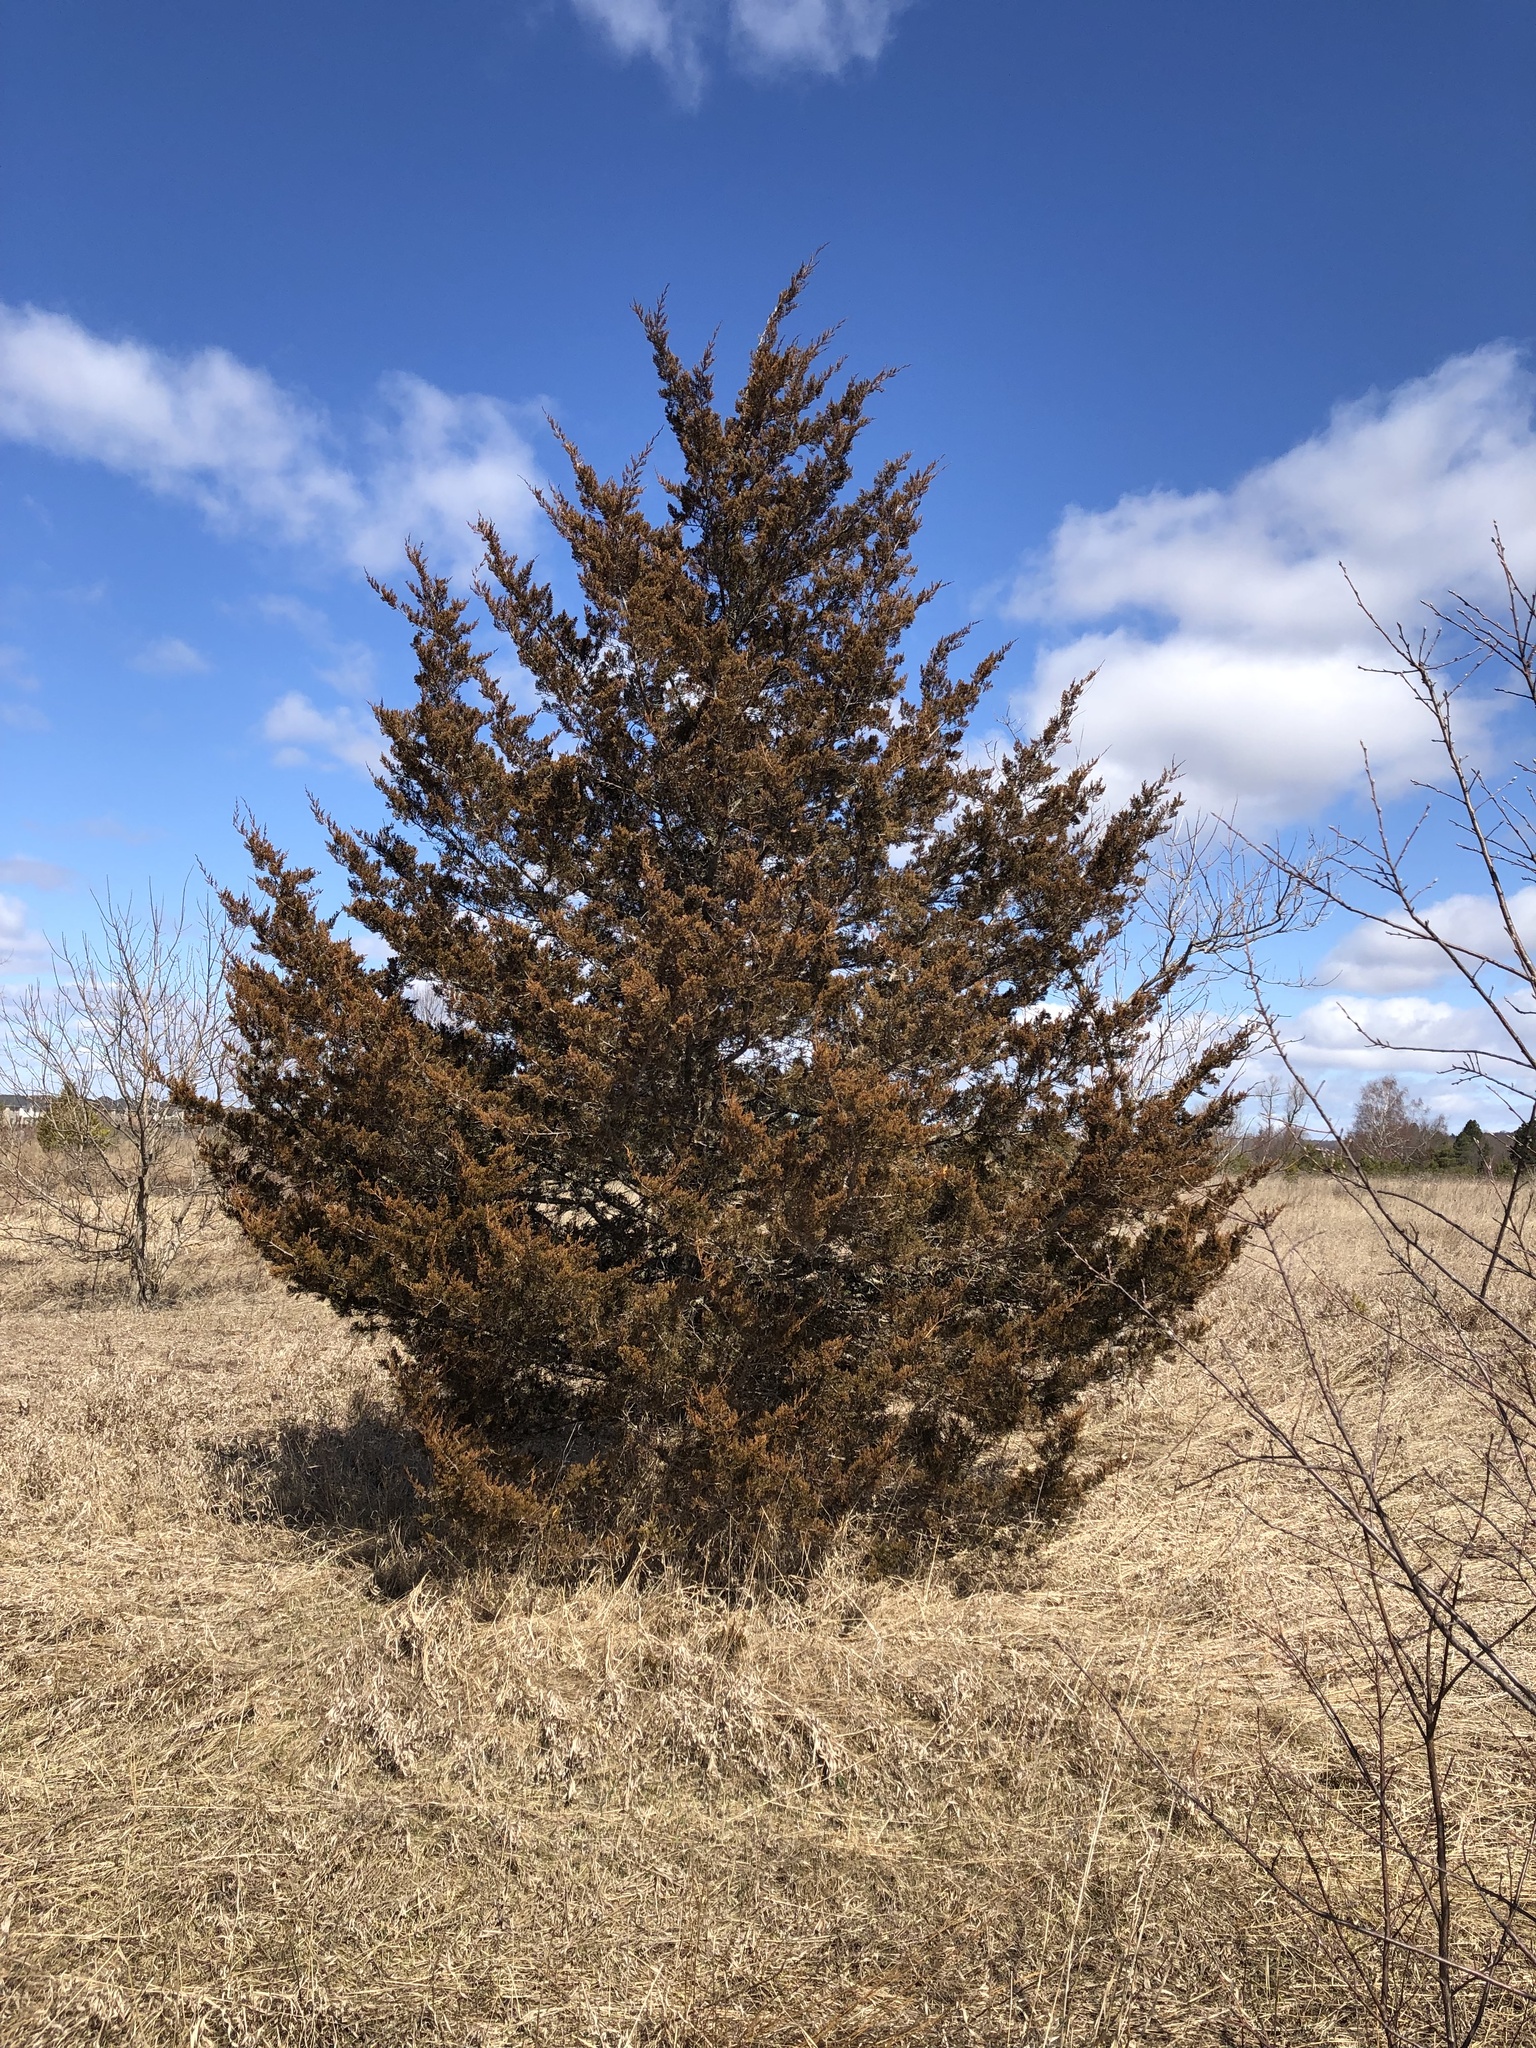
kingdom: Plantae
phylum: Tracheophyta
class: Pinopsida
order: Pinales
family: Cupressaceae
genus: Juniperus
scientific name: Juniperus virginiana
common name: Red juniper
